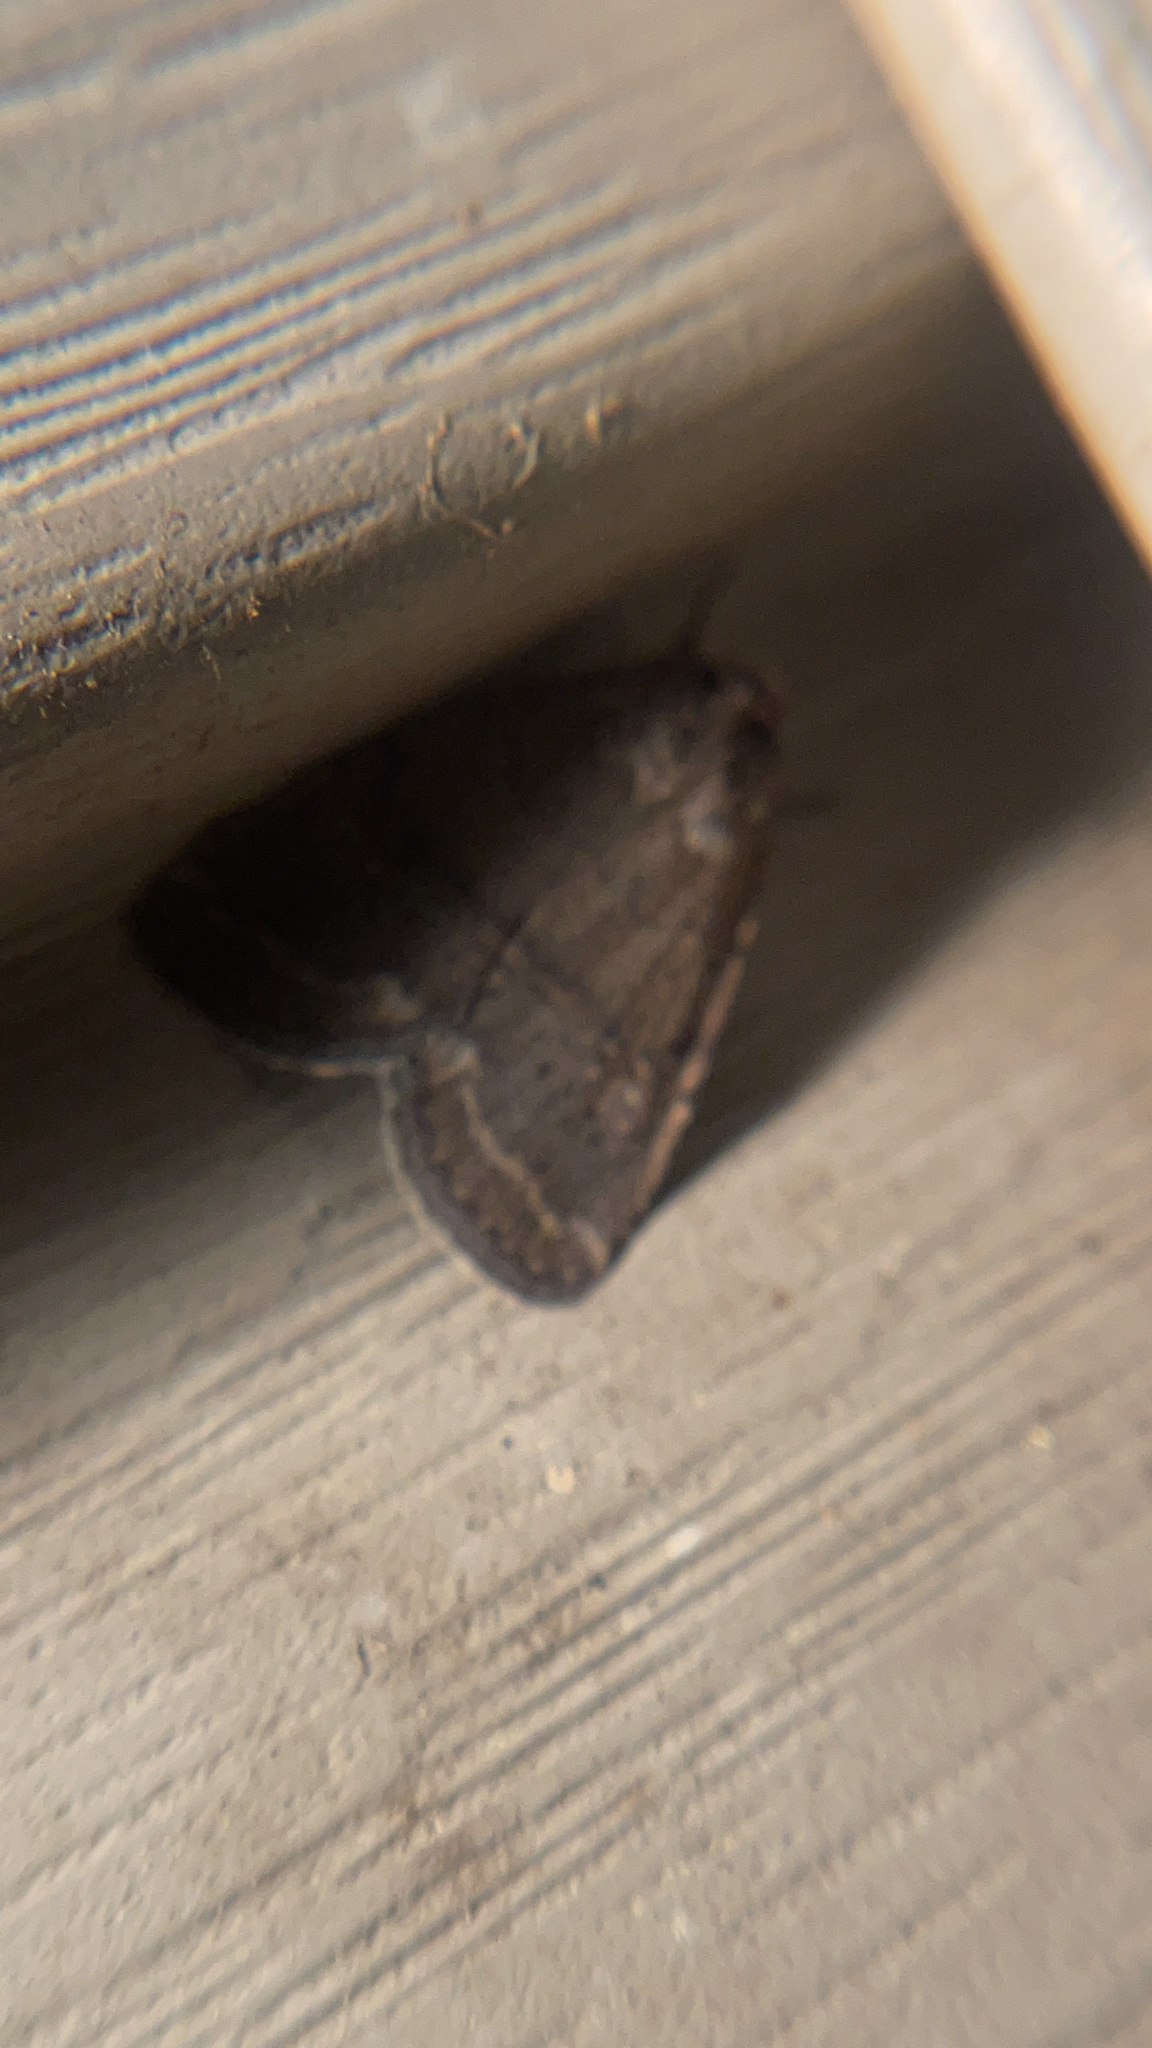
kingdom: Animalia
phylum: Arthropoda
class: Insecta
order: Lepidoptera
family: Noctuidae
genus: Athetis
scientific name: Athetis tarda
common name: Slowpoke moth
